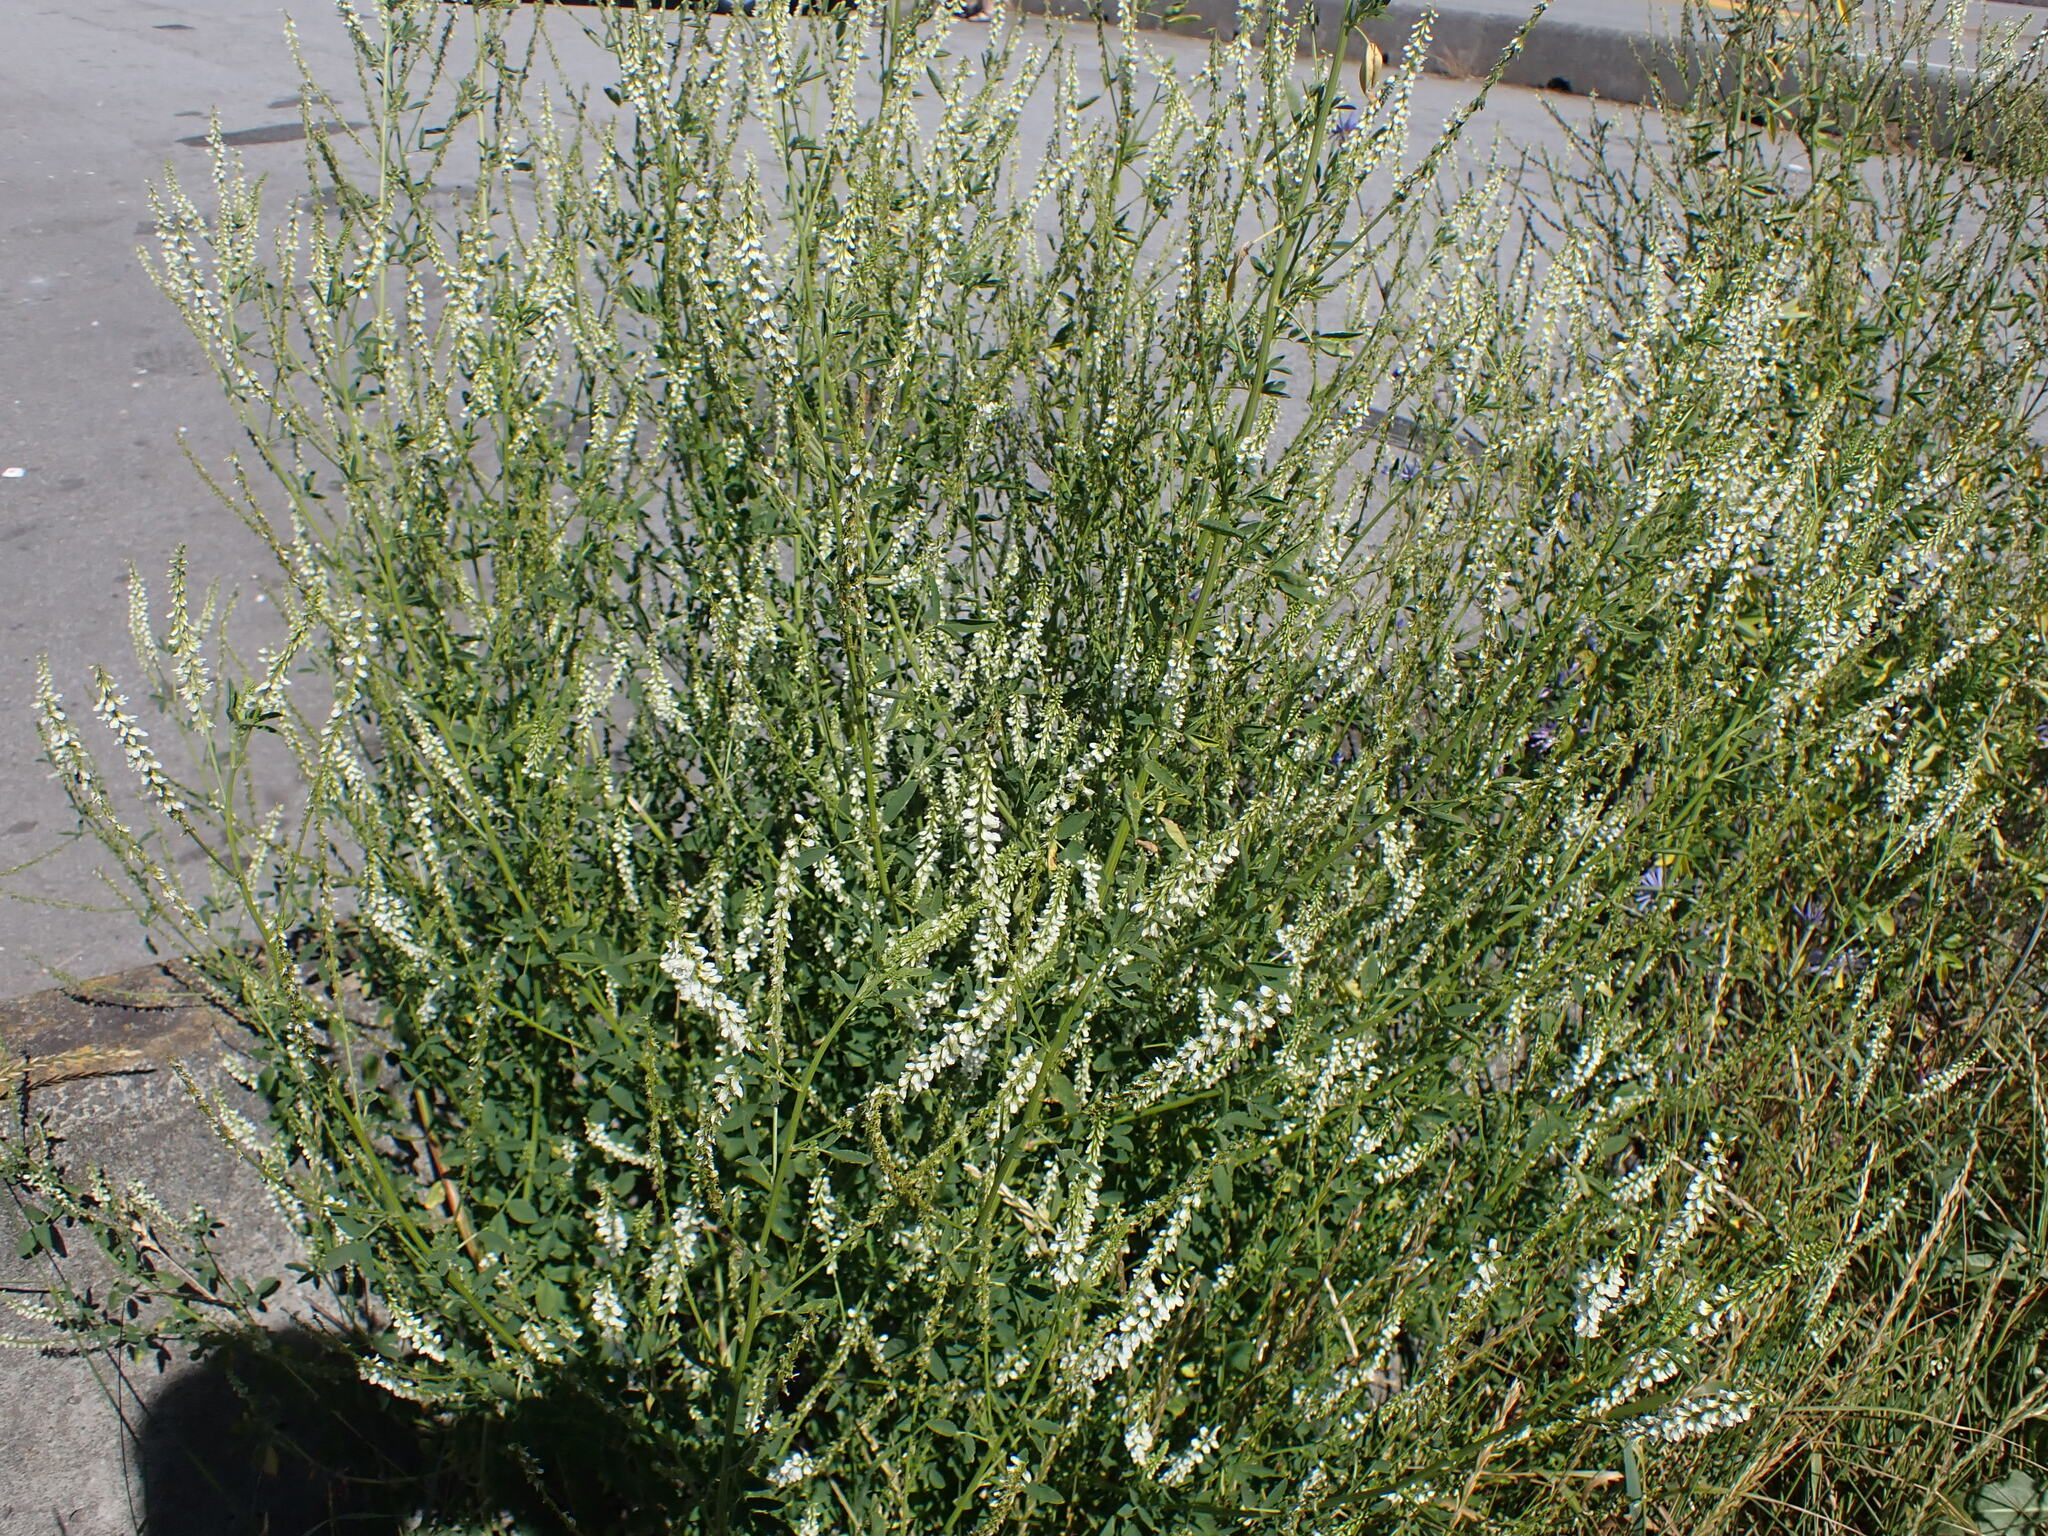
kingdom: Plantae
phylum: Tracheophyta
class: Magnoliopsida
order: Fabales
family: Fabaceae
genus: Melilotus
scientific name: Melilotus albus
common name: White melilot
